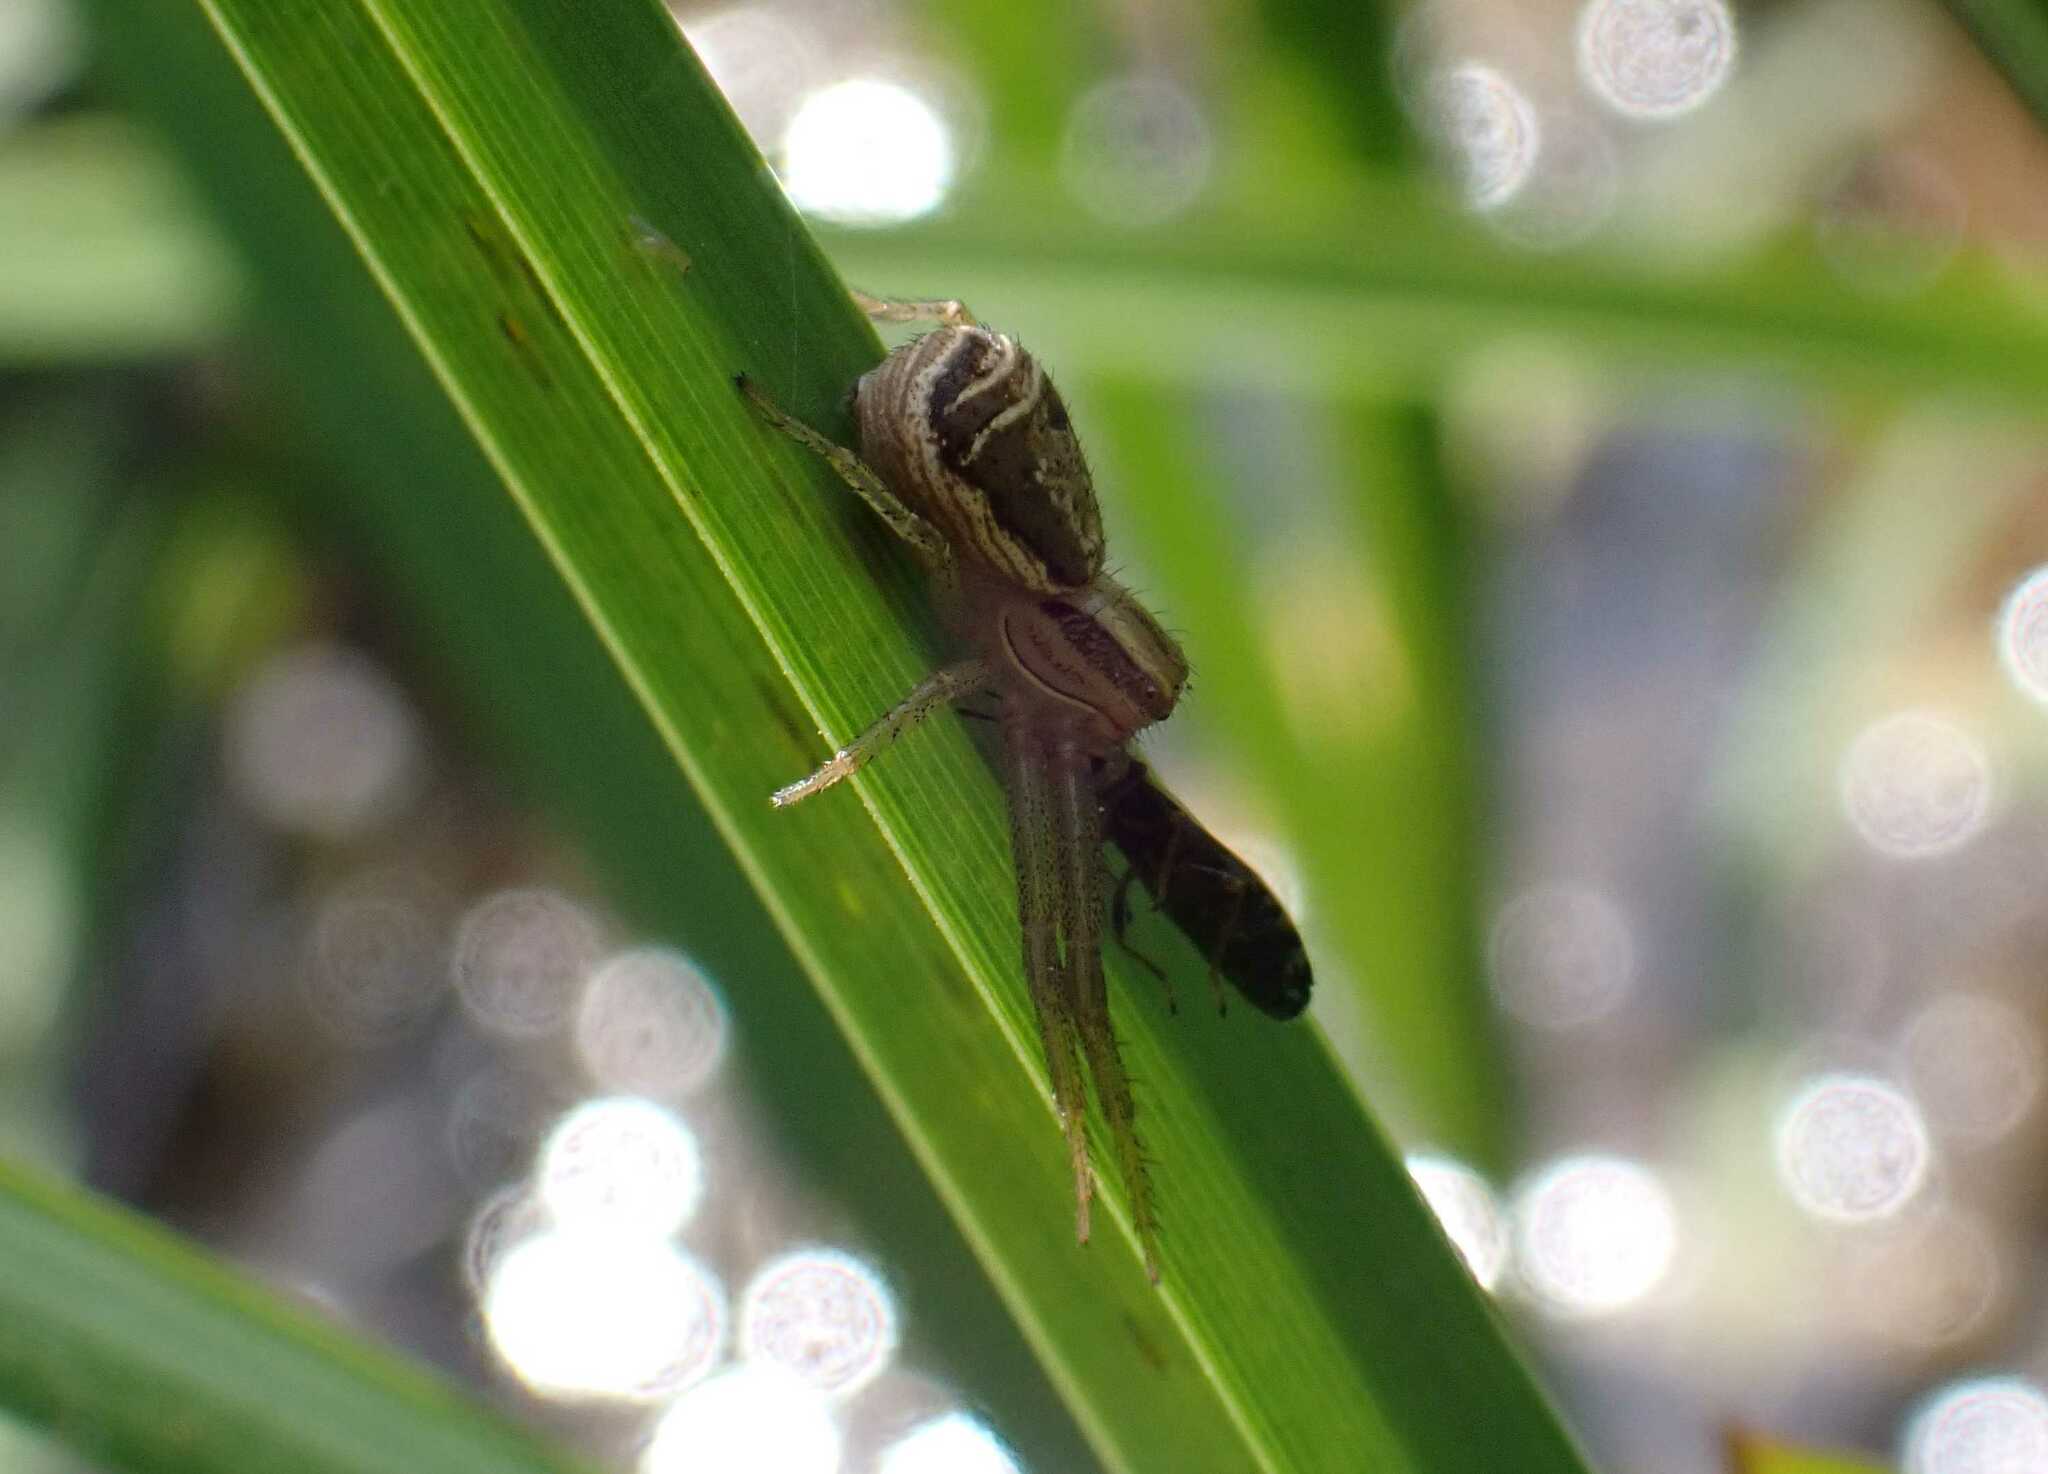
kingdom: Animalia
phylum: Arthropoda
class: Arachnida
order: Araneae
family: Thomisidae
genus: Xysticus
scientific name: Xysticus ulmi
